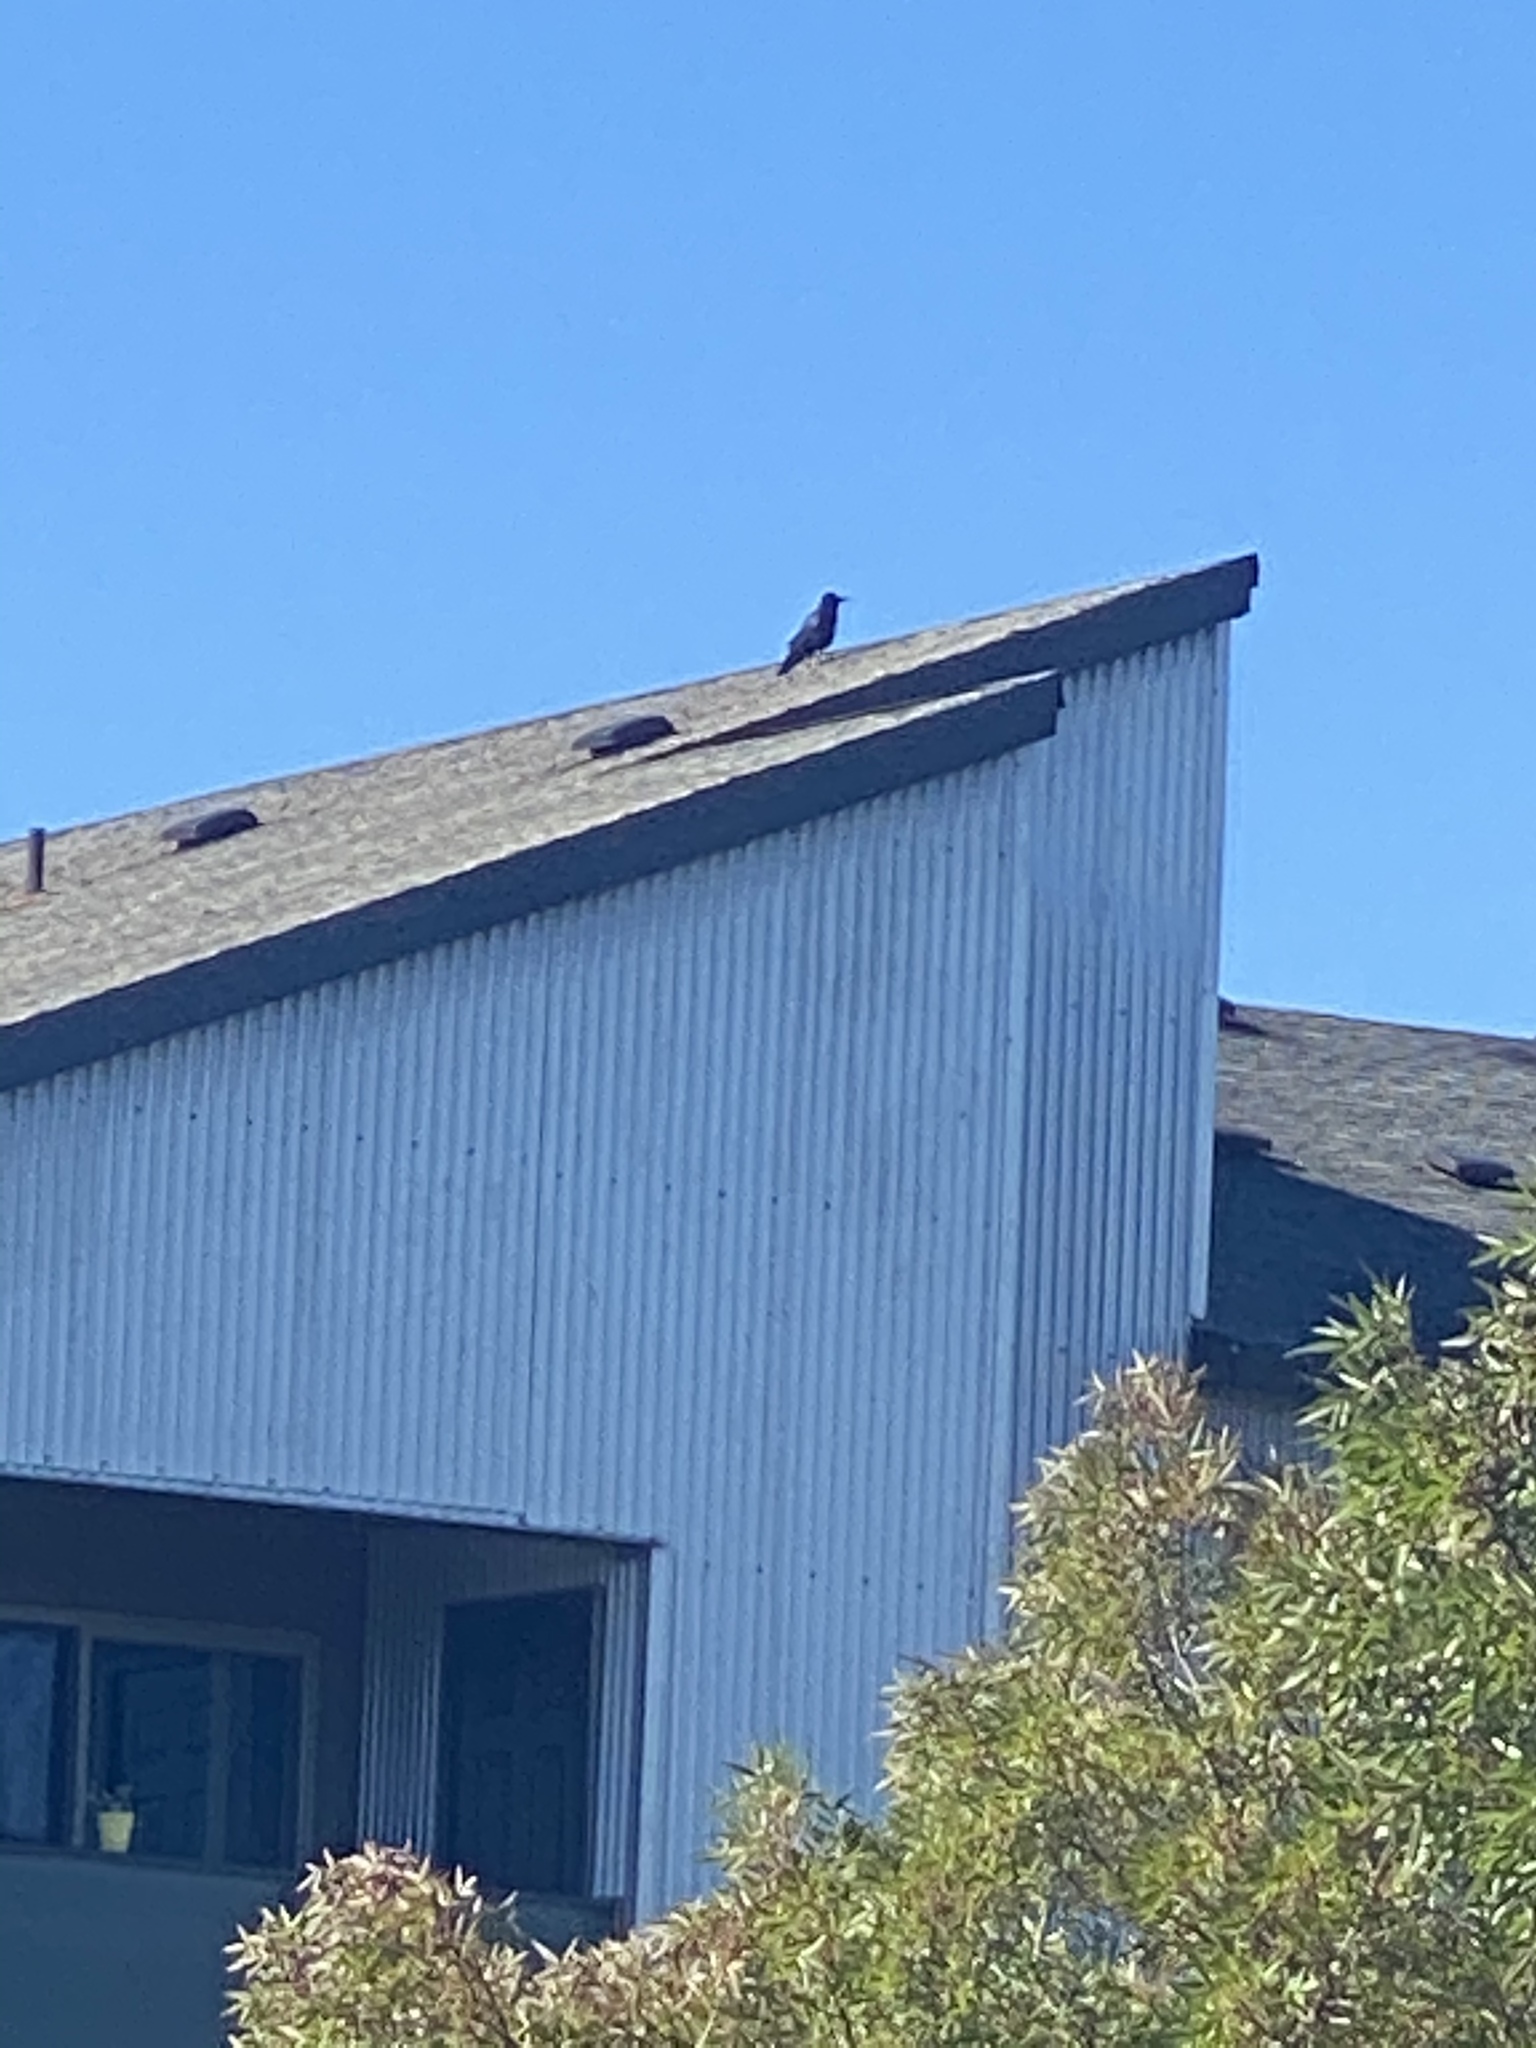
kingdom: Animalia
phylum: Chordata
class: Aves
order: Passeriformes
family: Corvidae
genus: Corvus
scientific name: Corvus brachyrhynchos
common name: American crow
